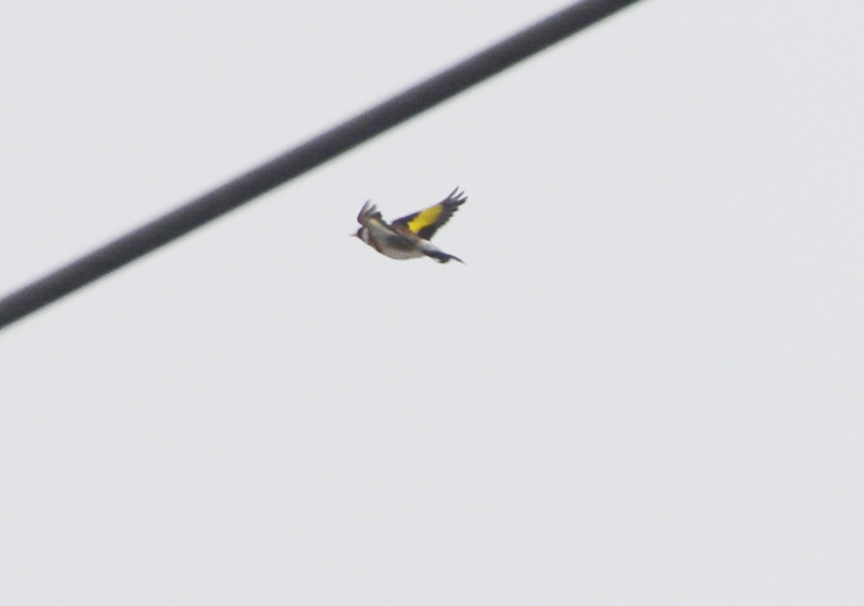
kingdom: Animalia
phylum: Chordata
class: Aves
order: Passeriformes
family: Fringillidae
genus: Carduelis
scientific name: Carduelis carduelis
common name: European goldfinch
